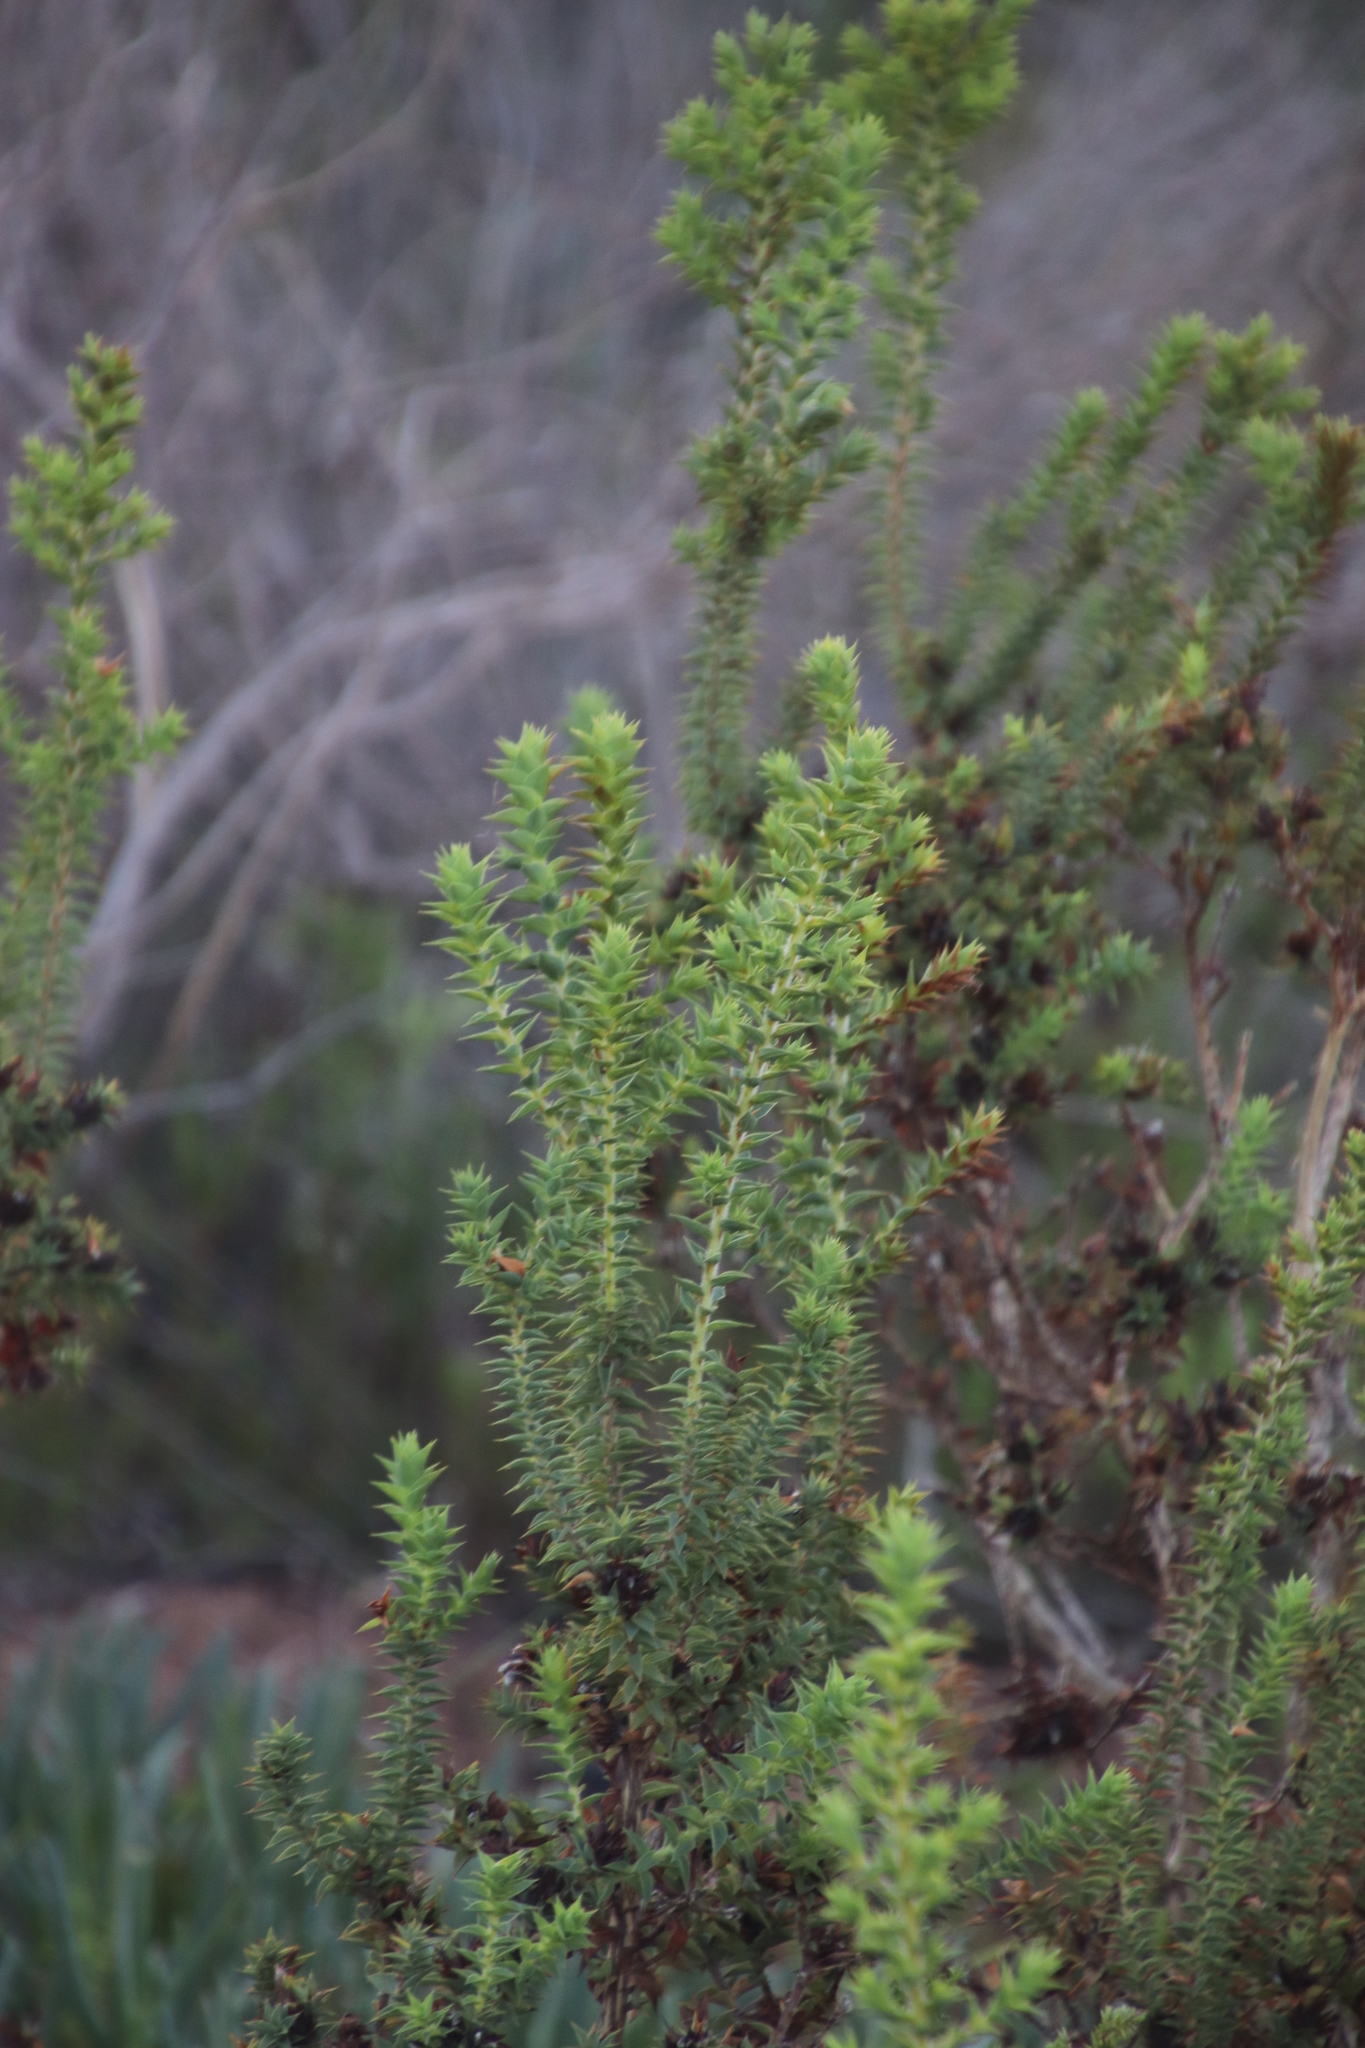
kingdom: Plantae
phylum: Tracheophyta
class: Magnoliopsida
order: Fabales
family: Fabaceae
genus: Aspalathus
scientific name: Aspalathus cordata
